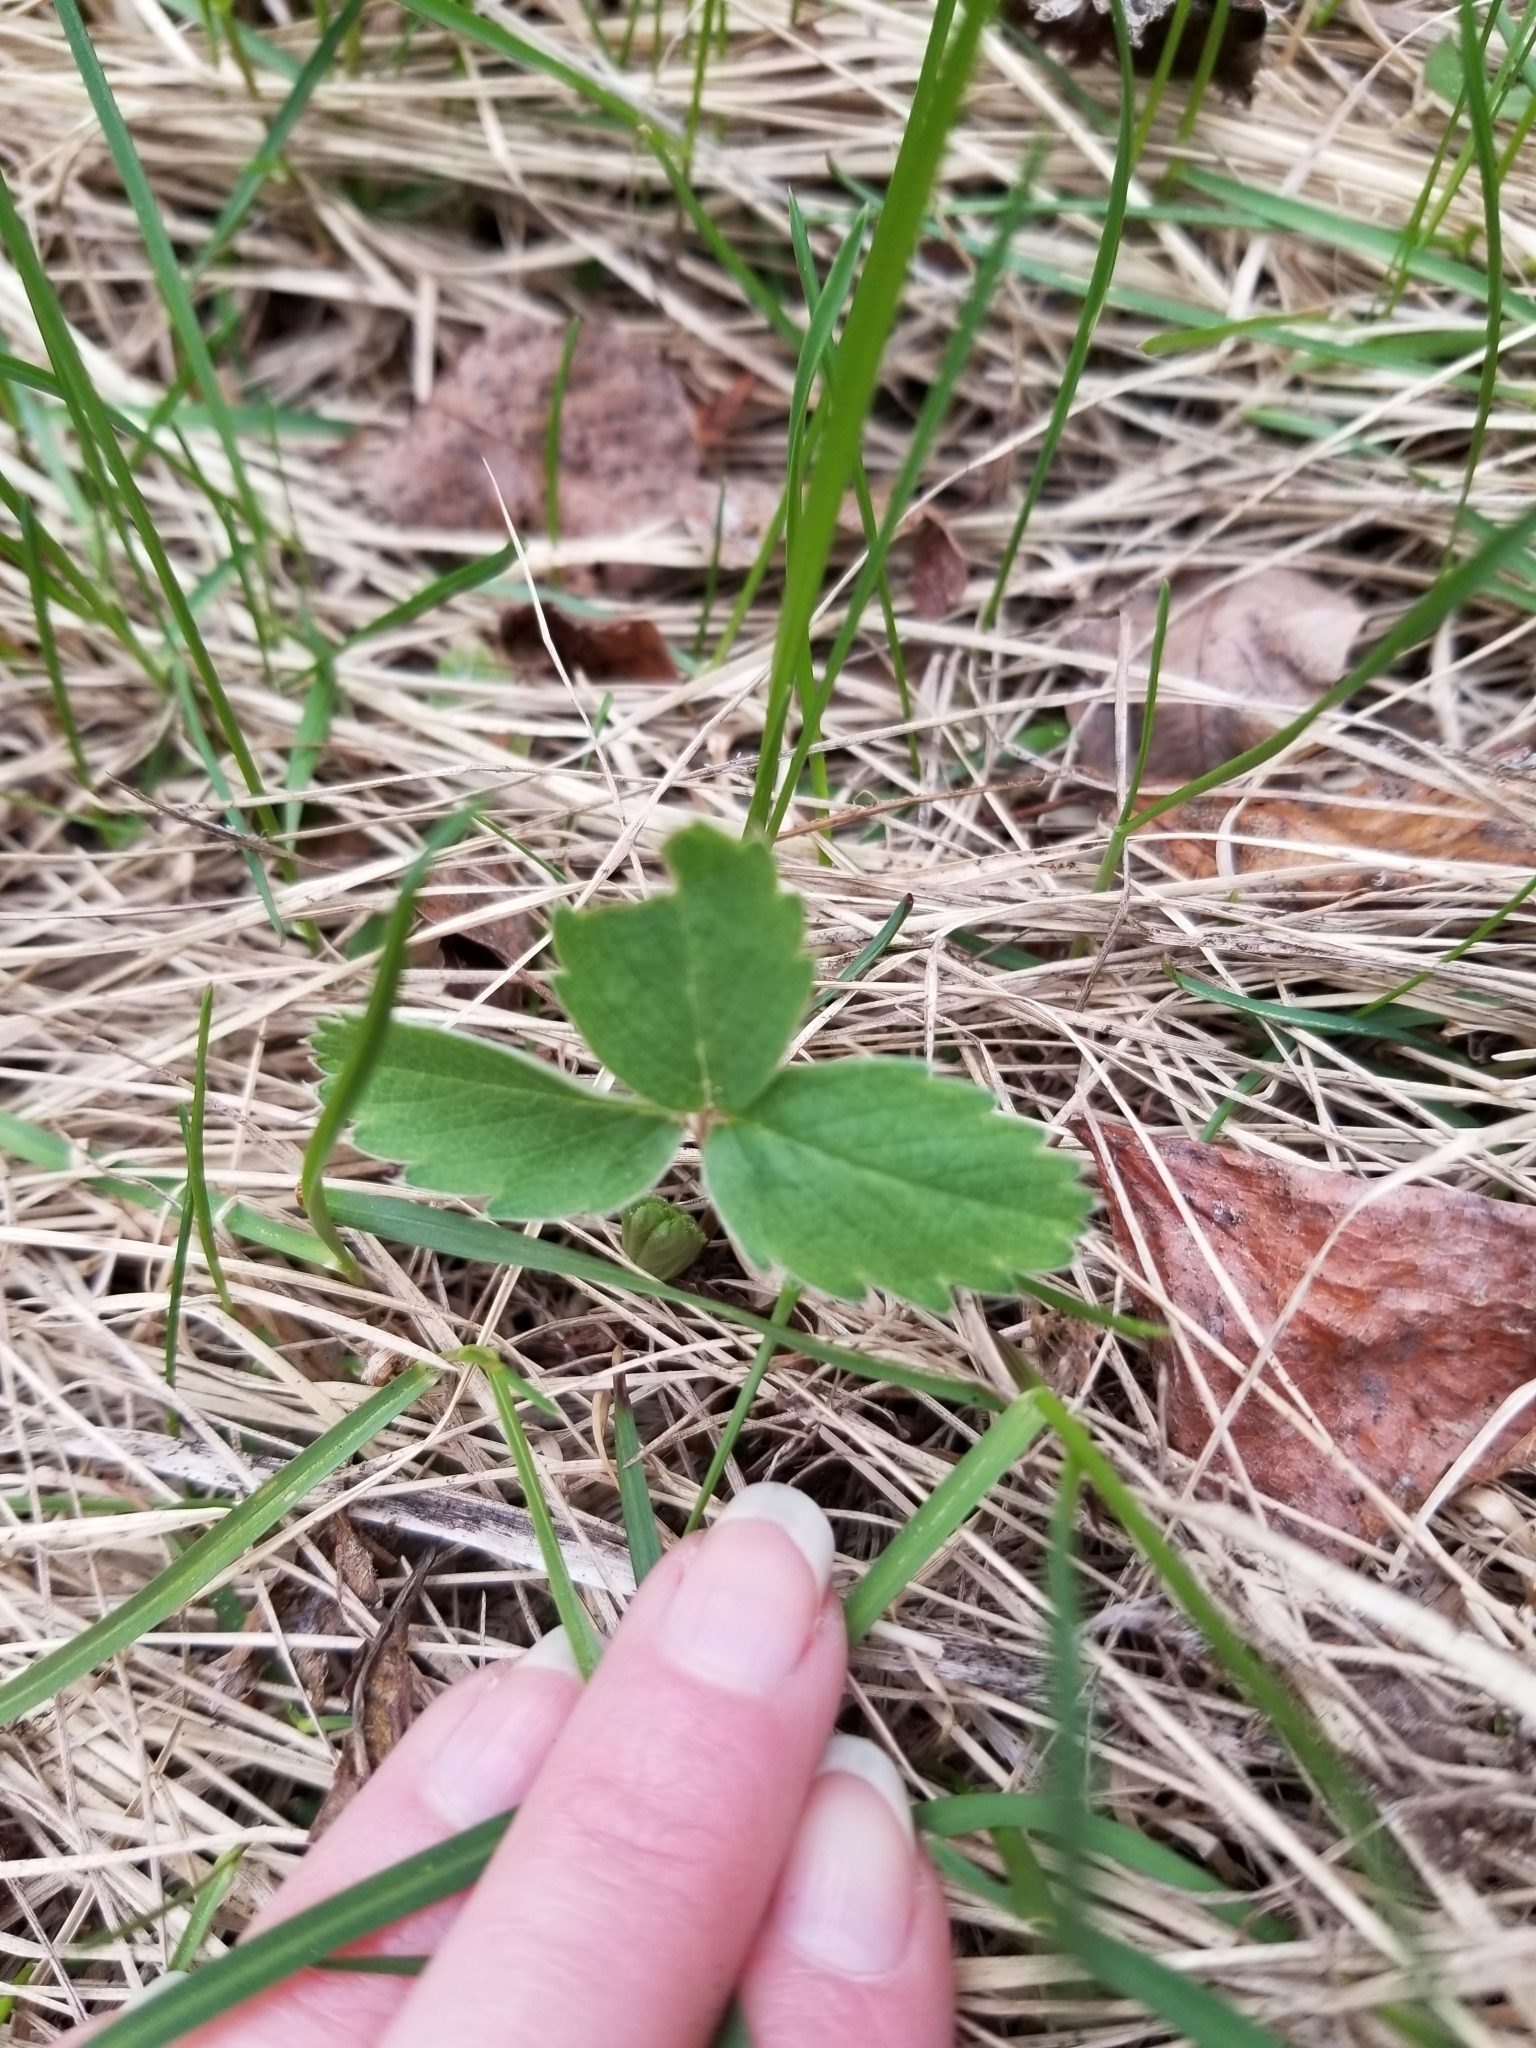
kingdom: Plantae
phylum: Tracheophyta
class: Magnoliopsida
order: Rosales
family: Rosaceae
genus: Fragaria
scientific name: Fragaria virginiana
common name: Thickleaved wild strawberry
